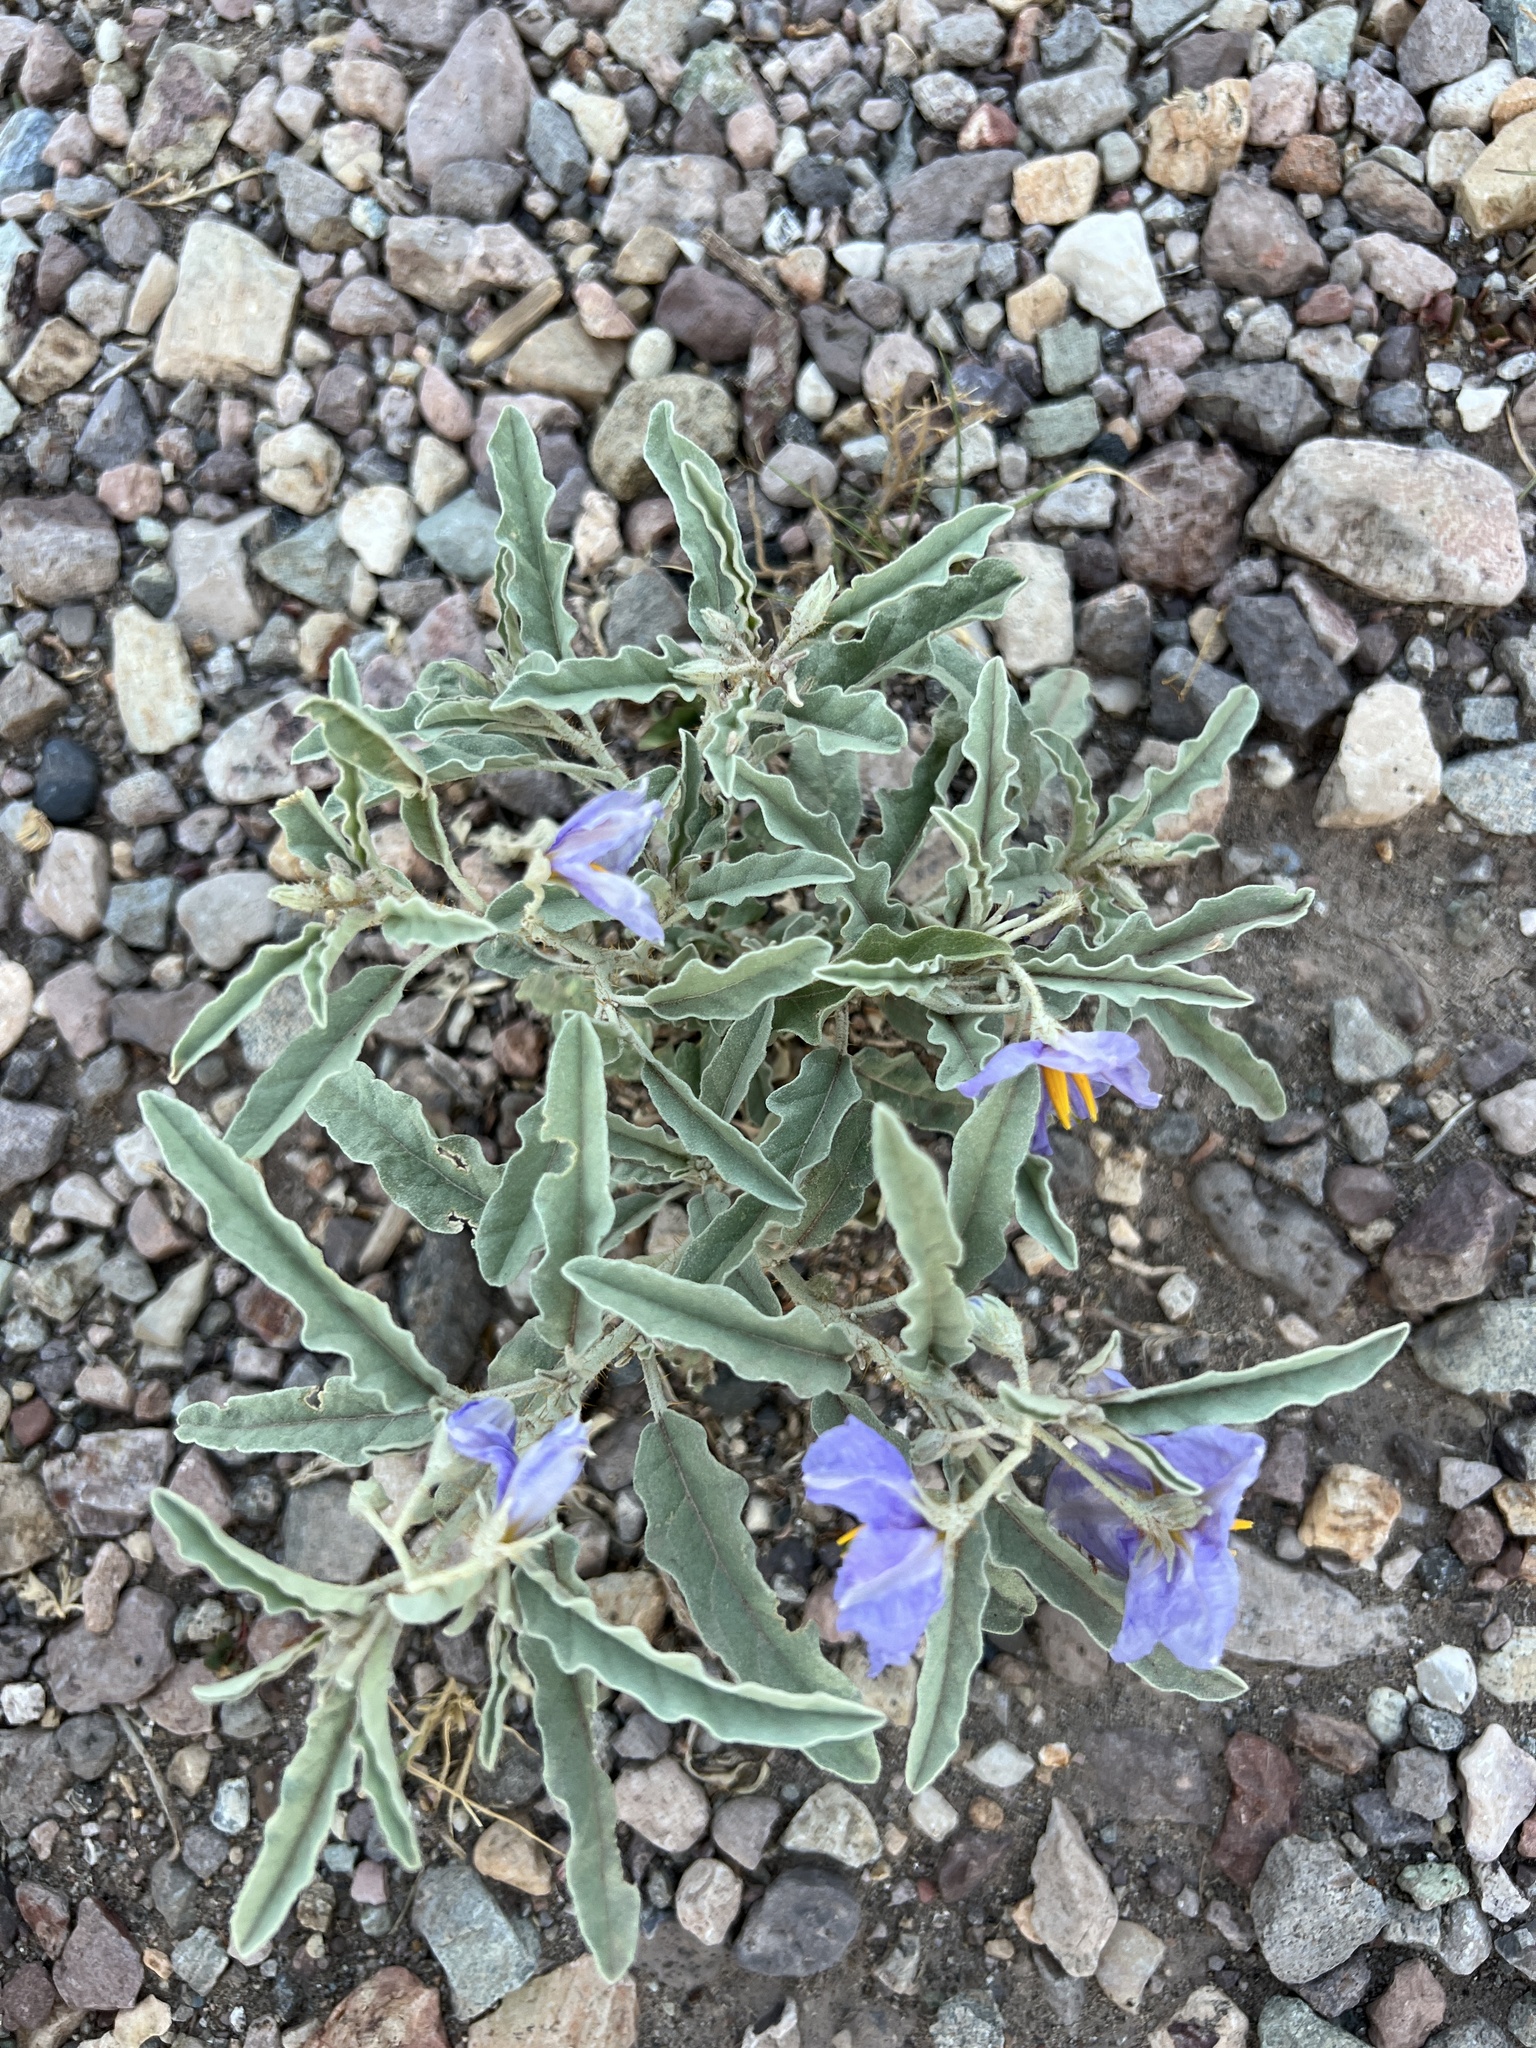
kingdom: Plantae
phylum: Tracheophyta
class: Magnoliopsida
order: Solanales
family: Solanaceae
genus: Solanum
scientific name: Solanum elaeagnifolium
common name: Silverleaf nightshade
